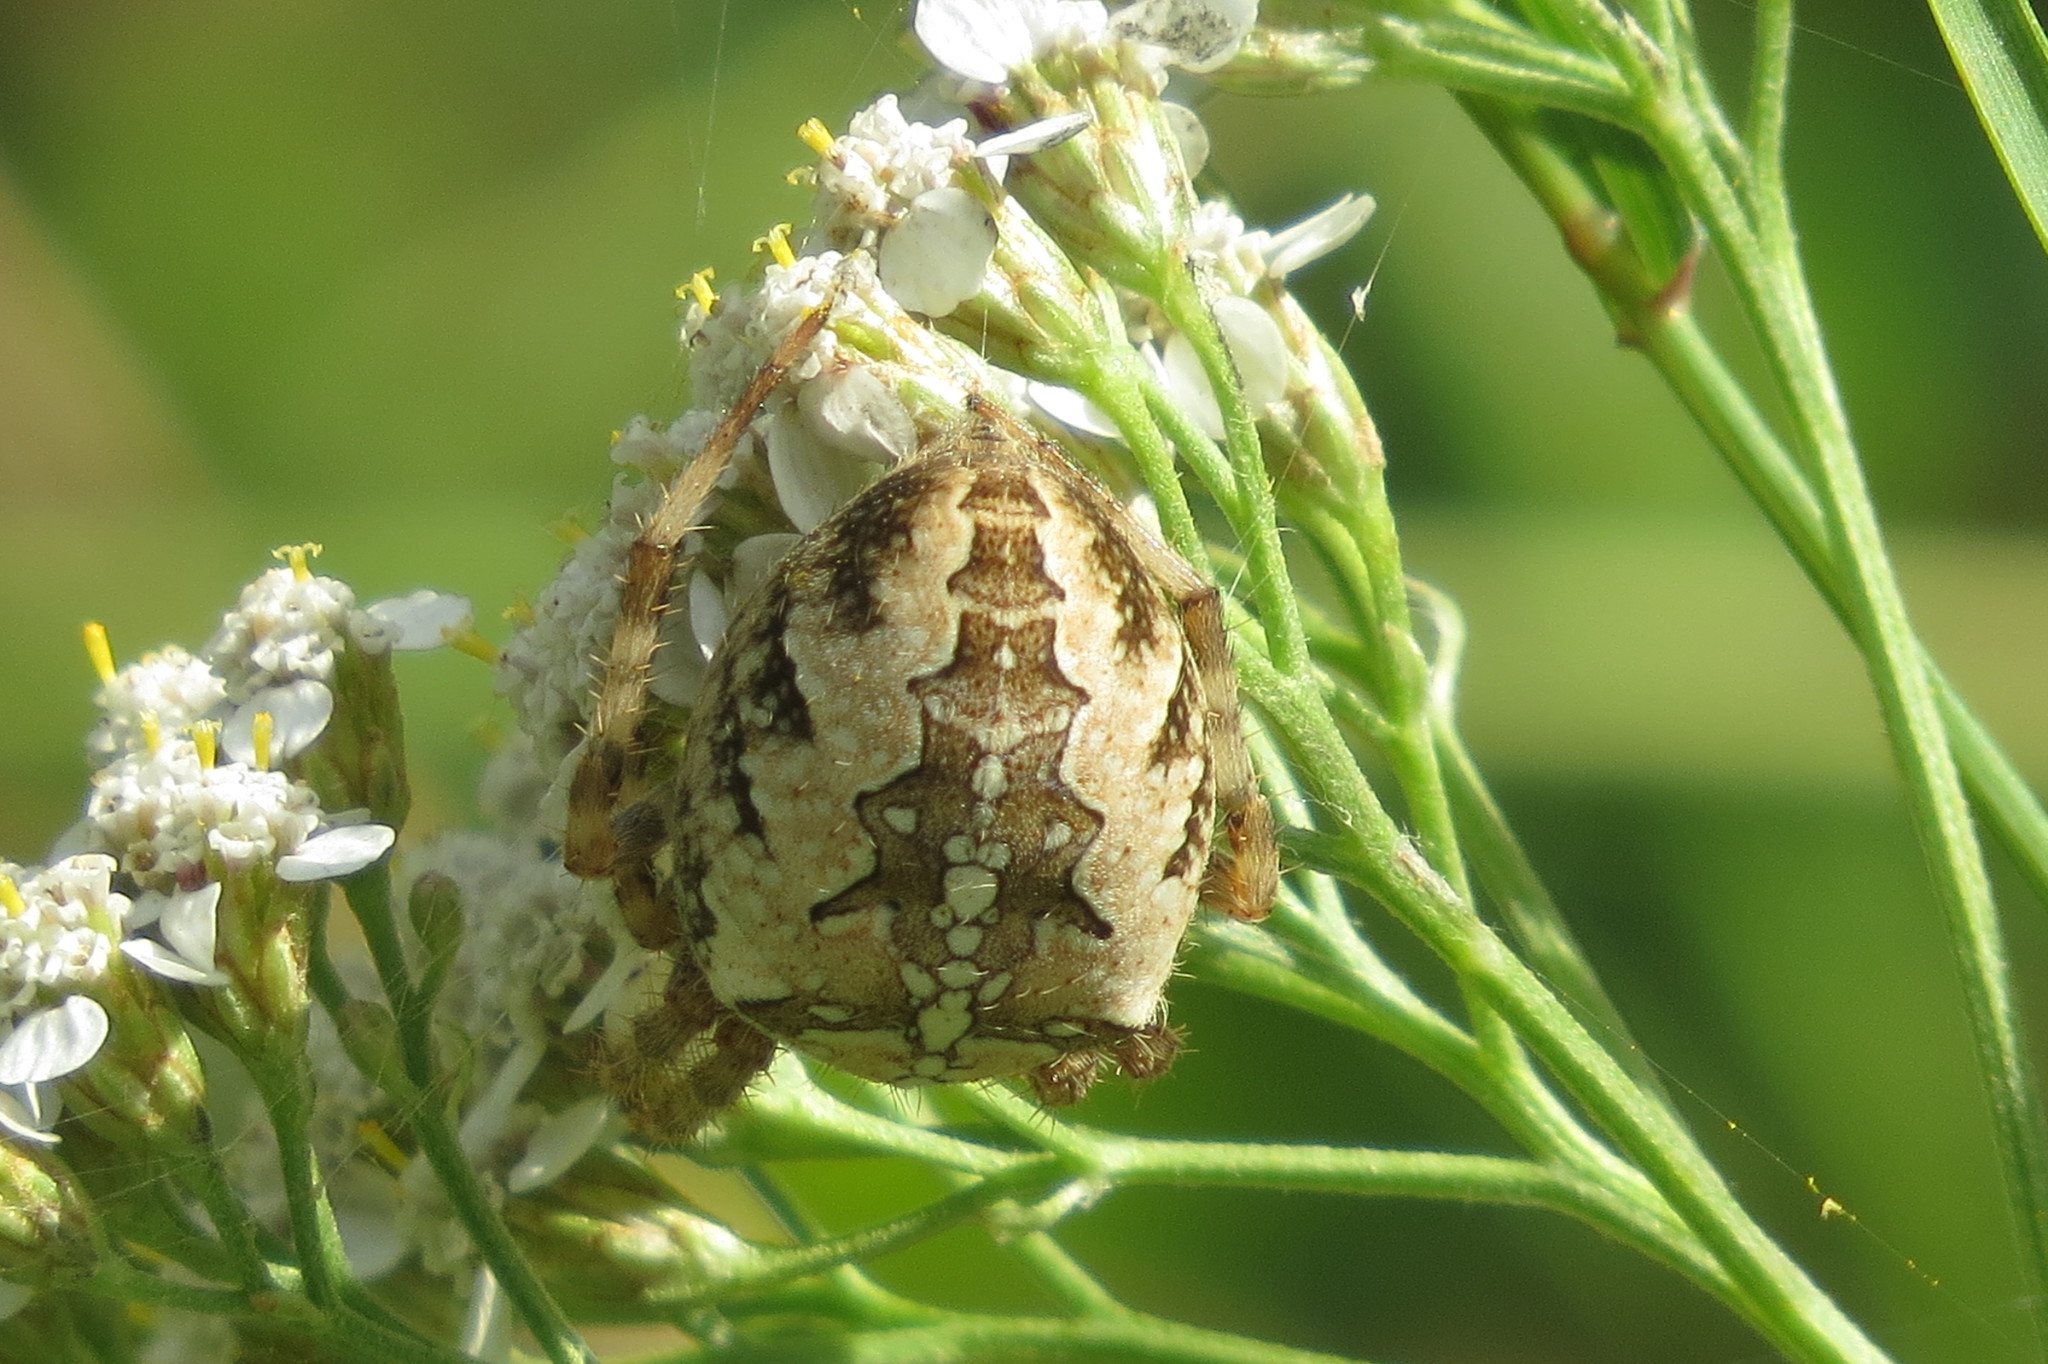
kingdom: Animalia
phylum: Arthropoda
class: Arachnida
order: Araneae
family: Araneidae
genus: Araneus
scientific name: Araneus diadematus
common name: Cross orbweaver
